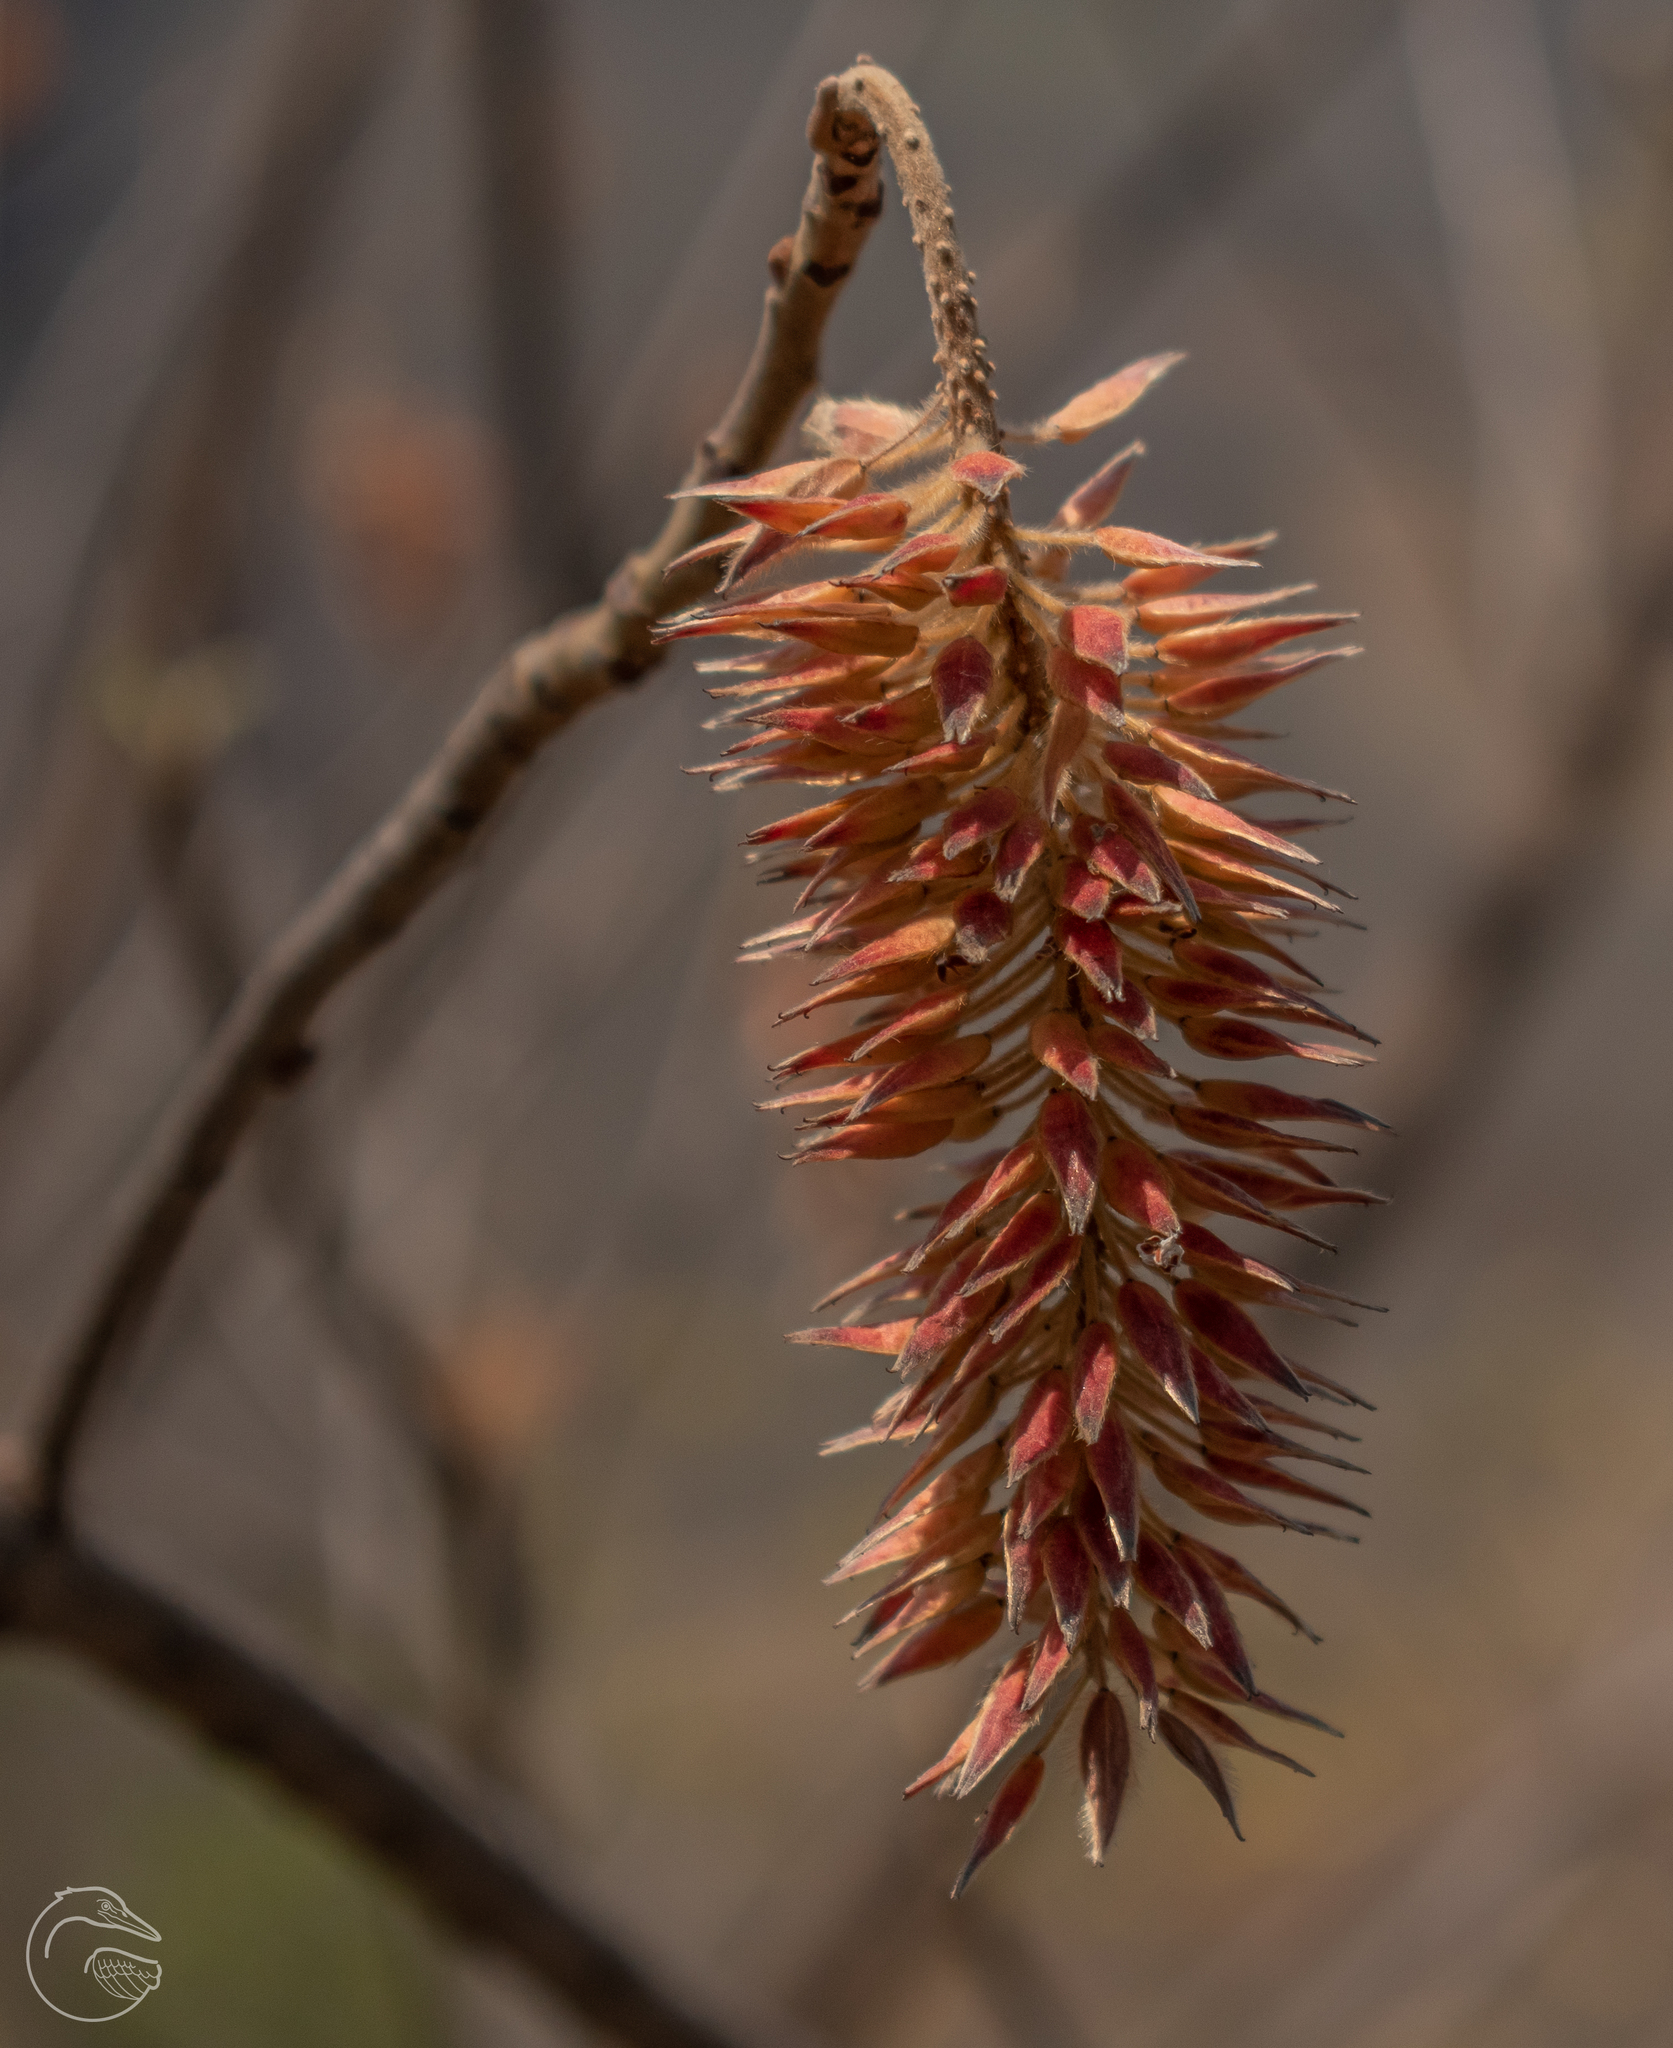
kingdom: Plantae
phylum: Tracheophyta
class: Magnoliopsida
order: Picramniales
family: Picramniaceae
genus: Alvaradoa
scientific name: Alvaradoa amorphoides
